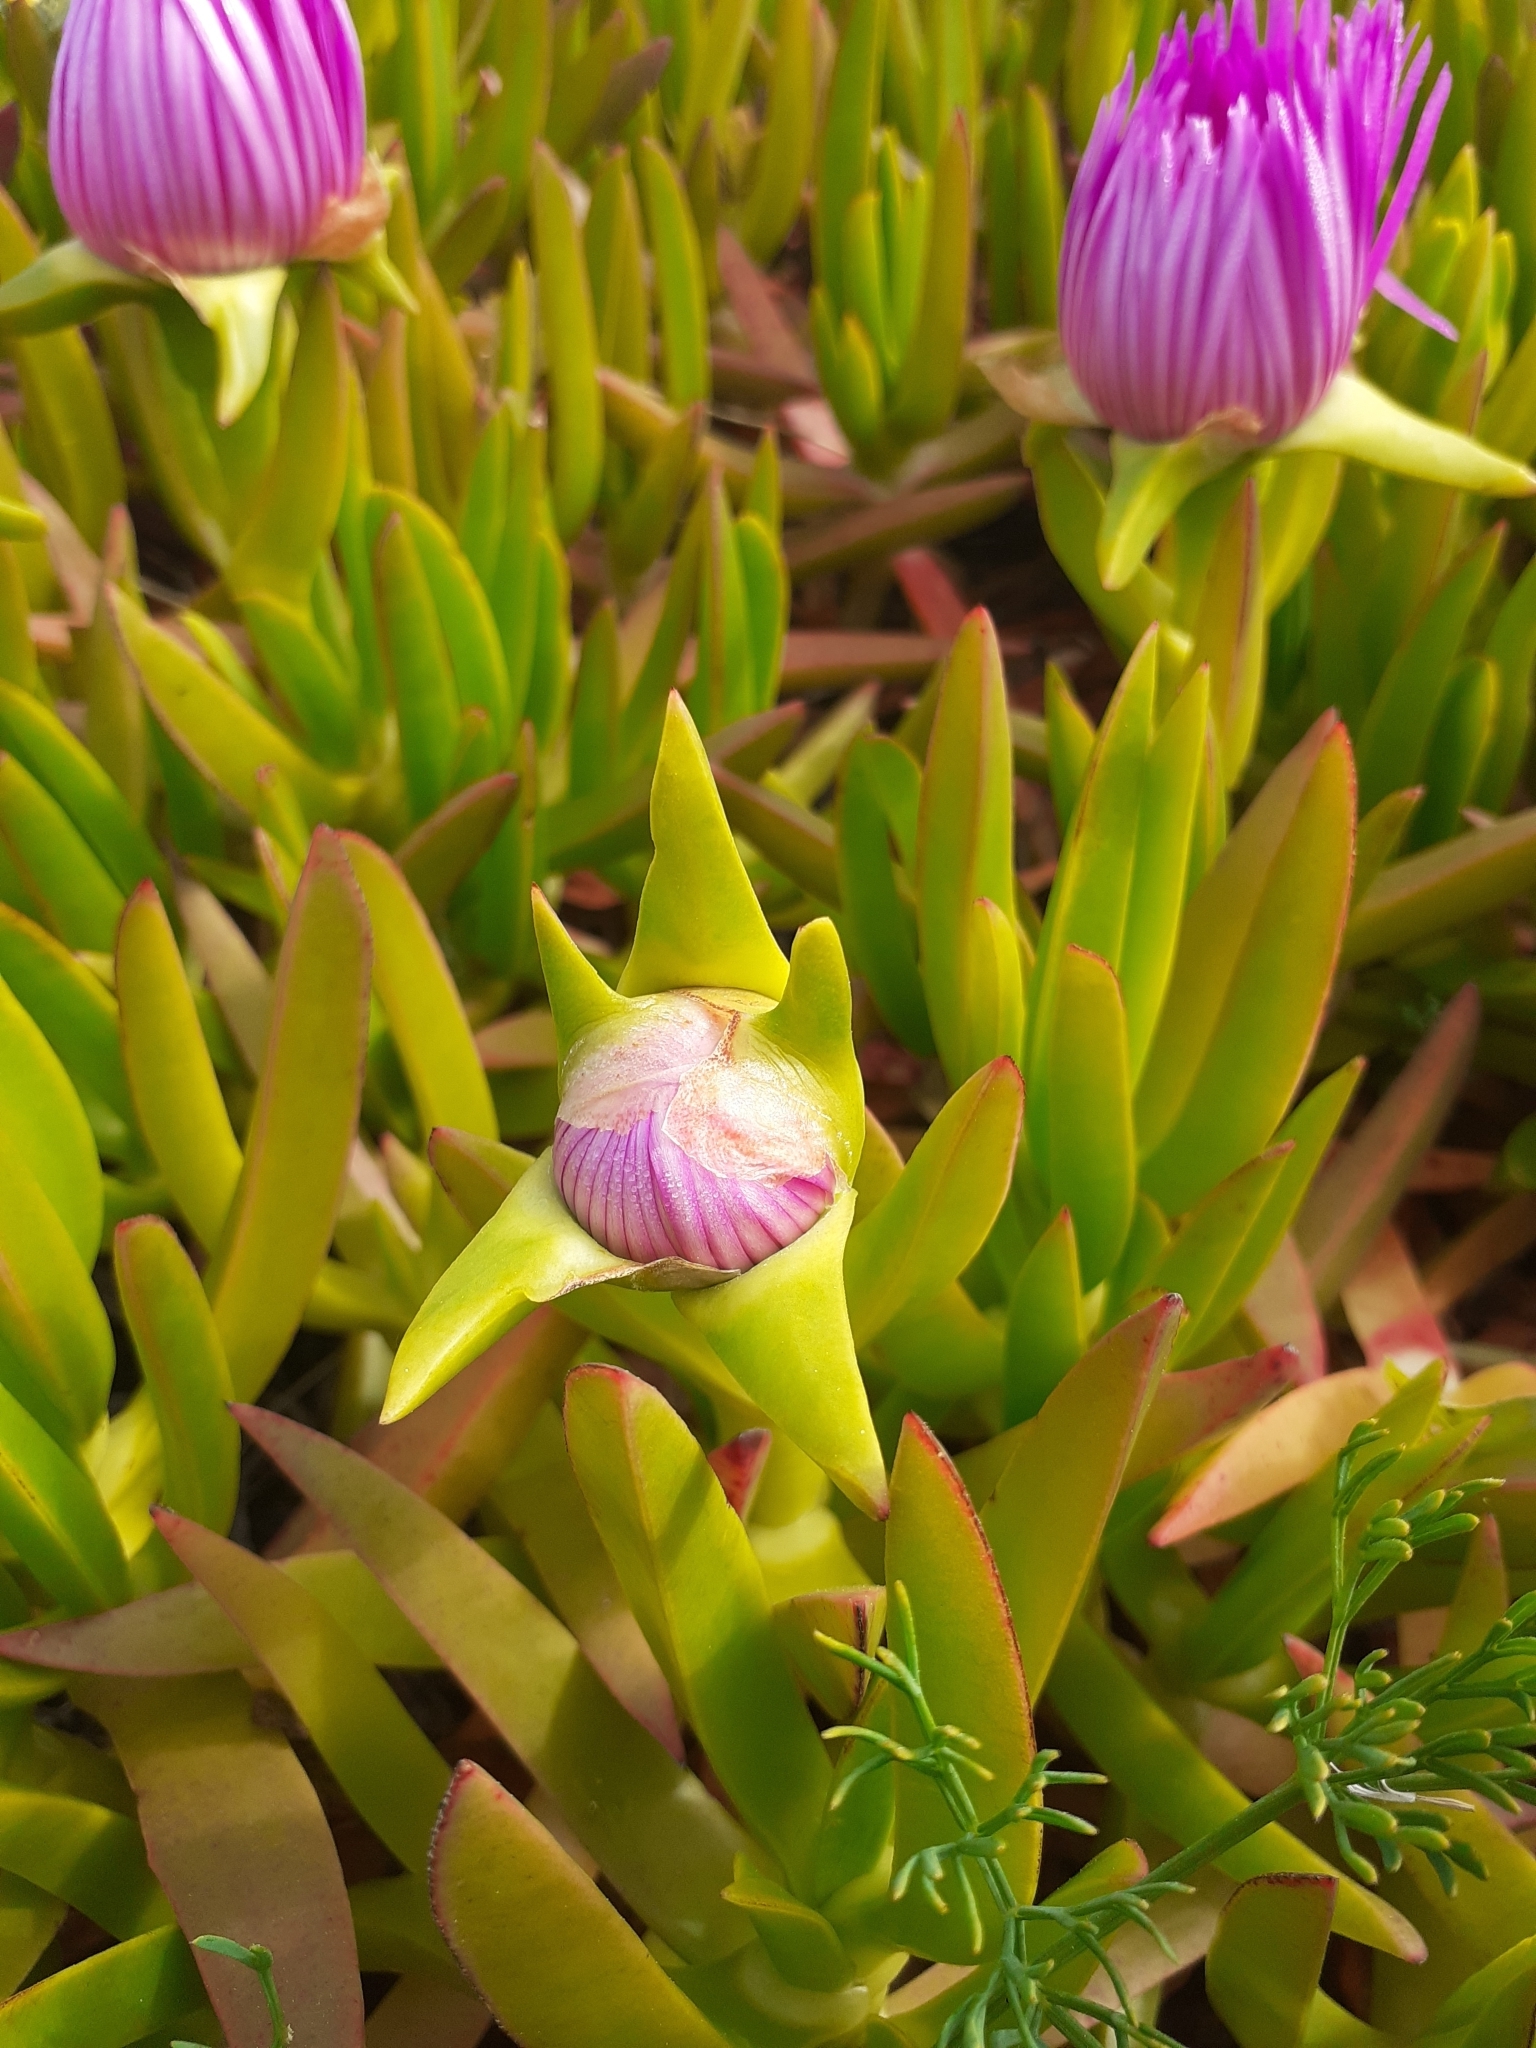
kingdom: Plantae
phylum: Tracheophyta
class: Magnoliopsida
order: Caryophyllales
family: Aizoaceae
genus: Carpobrotus
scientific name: Carpobrotus acinaciformis
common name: Sally-my-handsome
